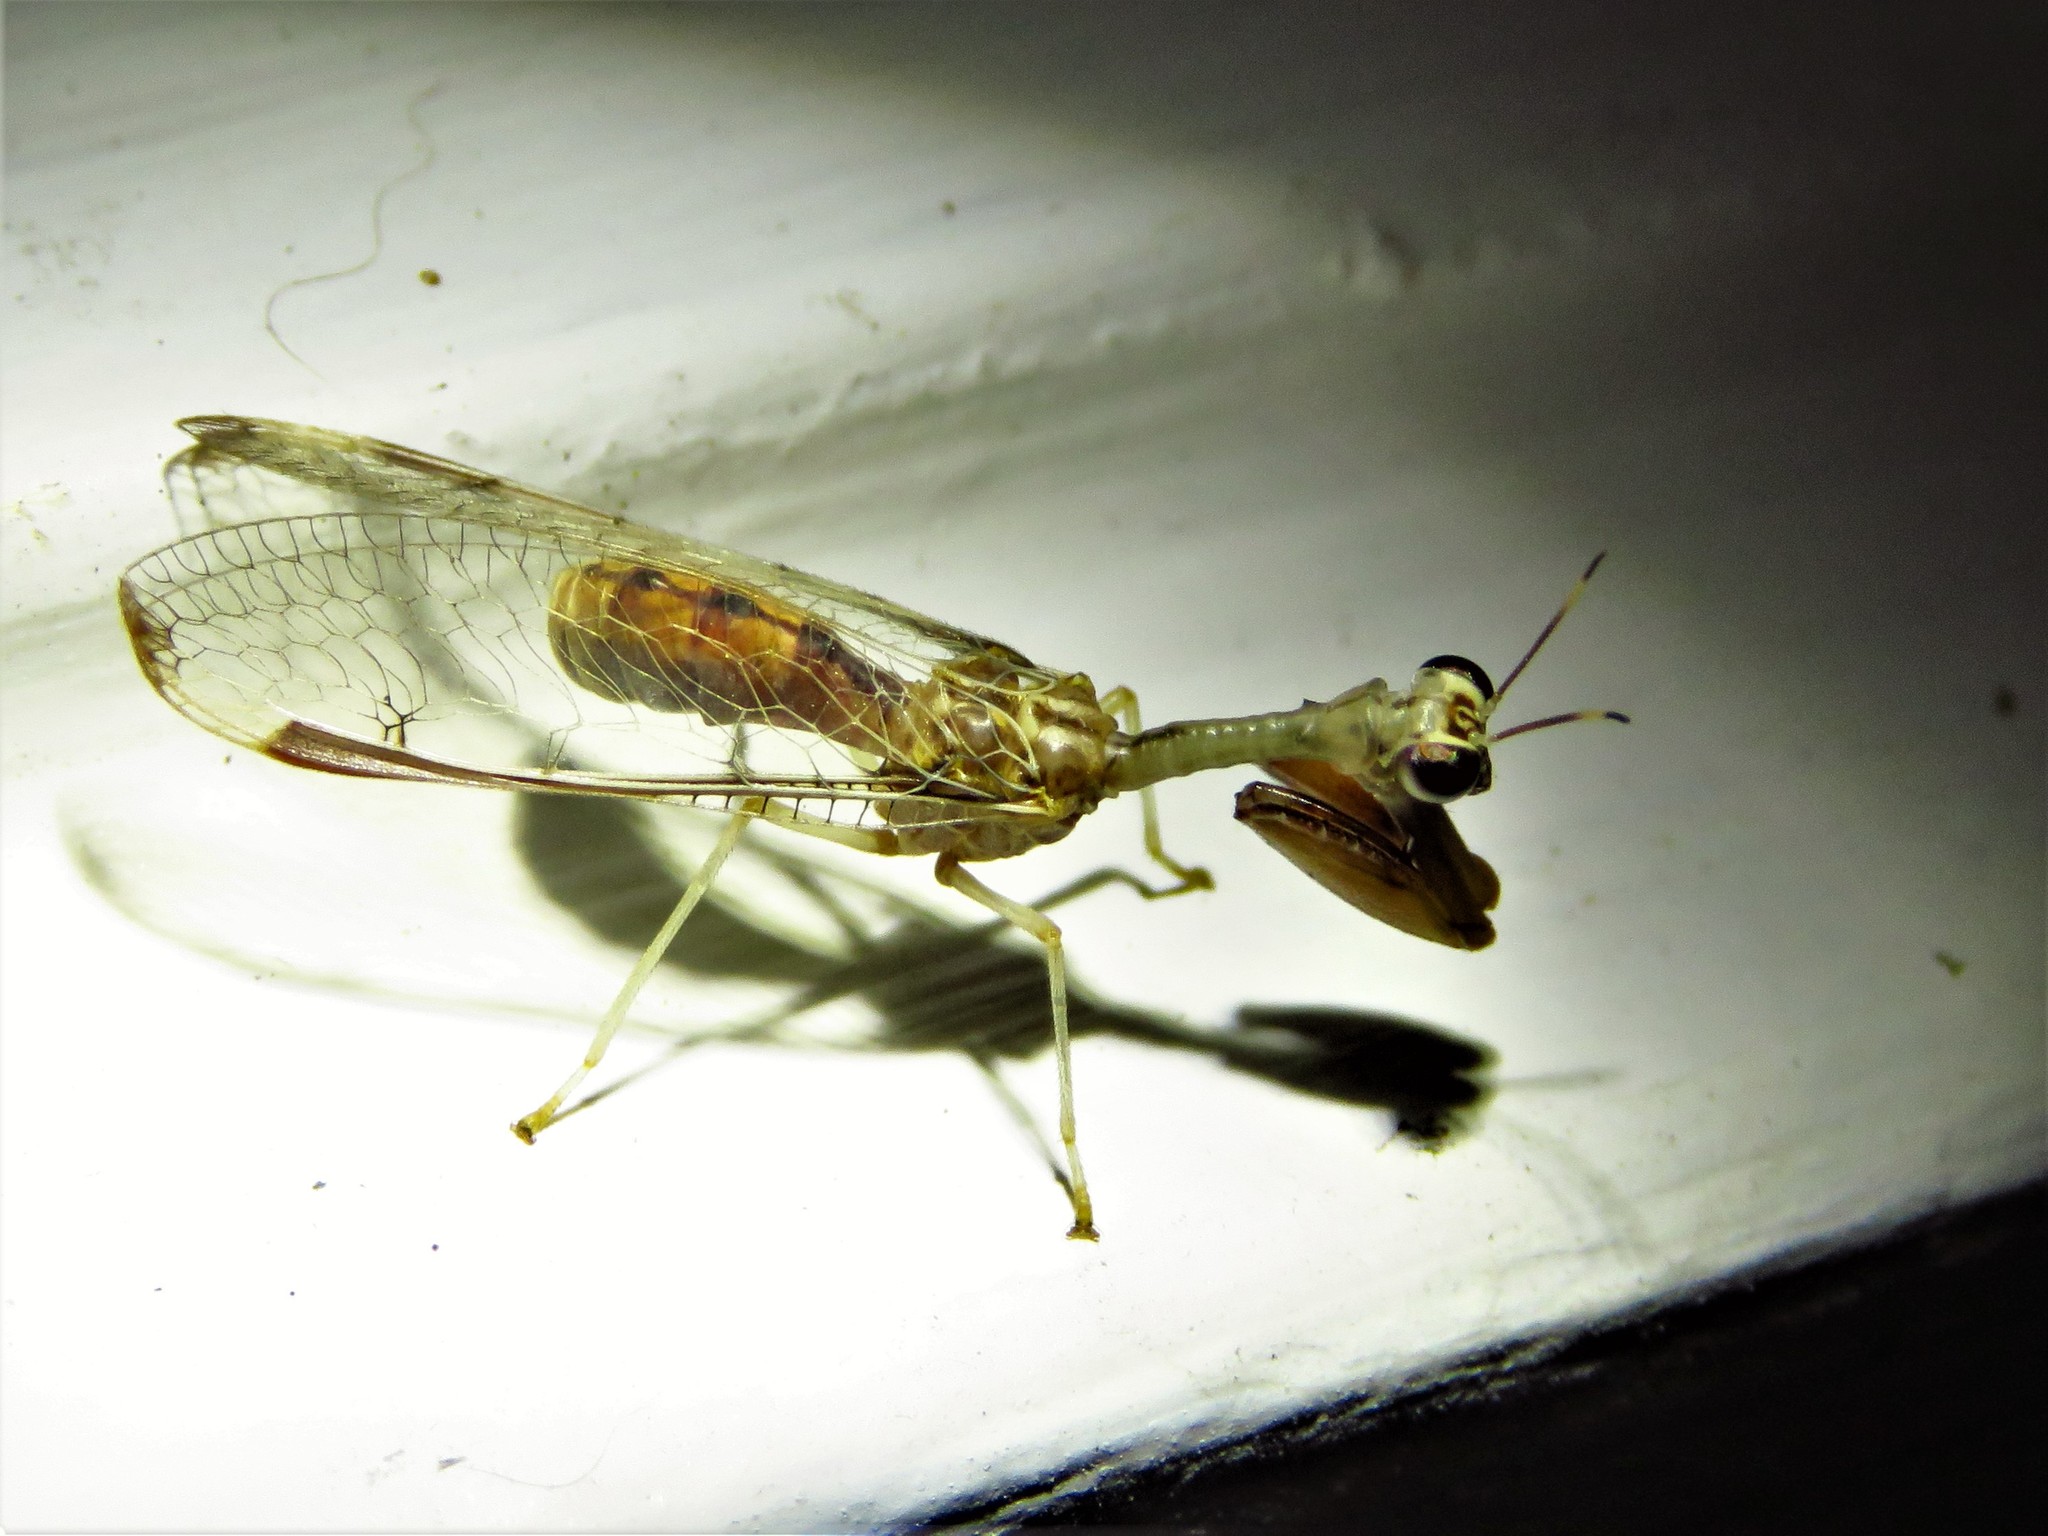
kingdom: Animalia
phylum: Arthropoda
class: Insecta
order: Neuroptera
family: Mantispidae
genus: Dicromantispa
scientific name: Dicromantispa interrupta
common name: Four-spotted mantidfly
